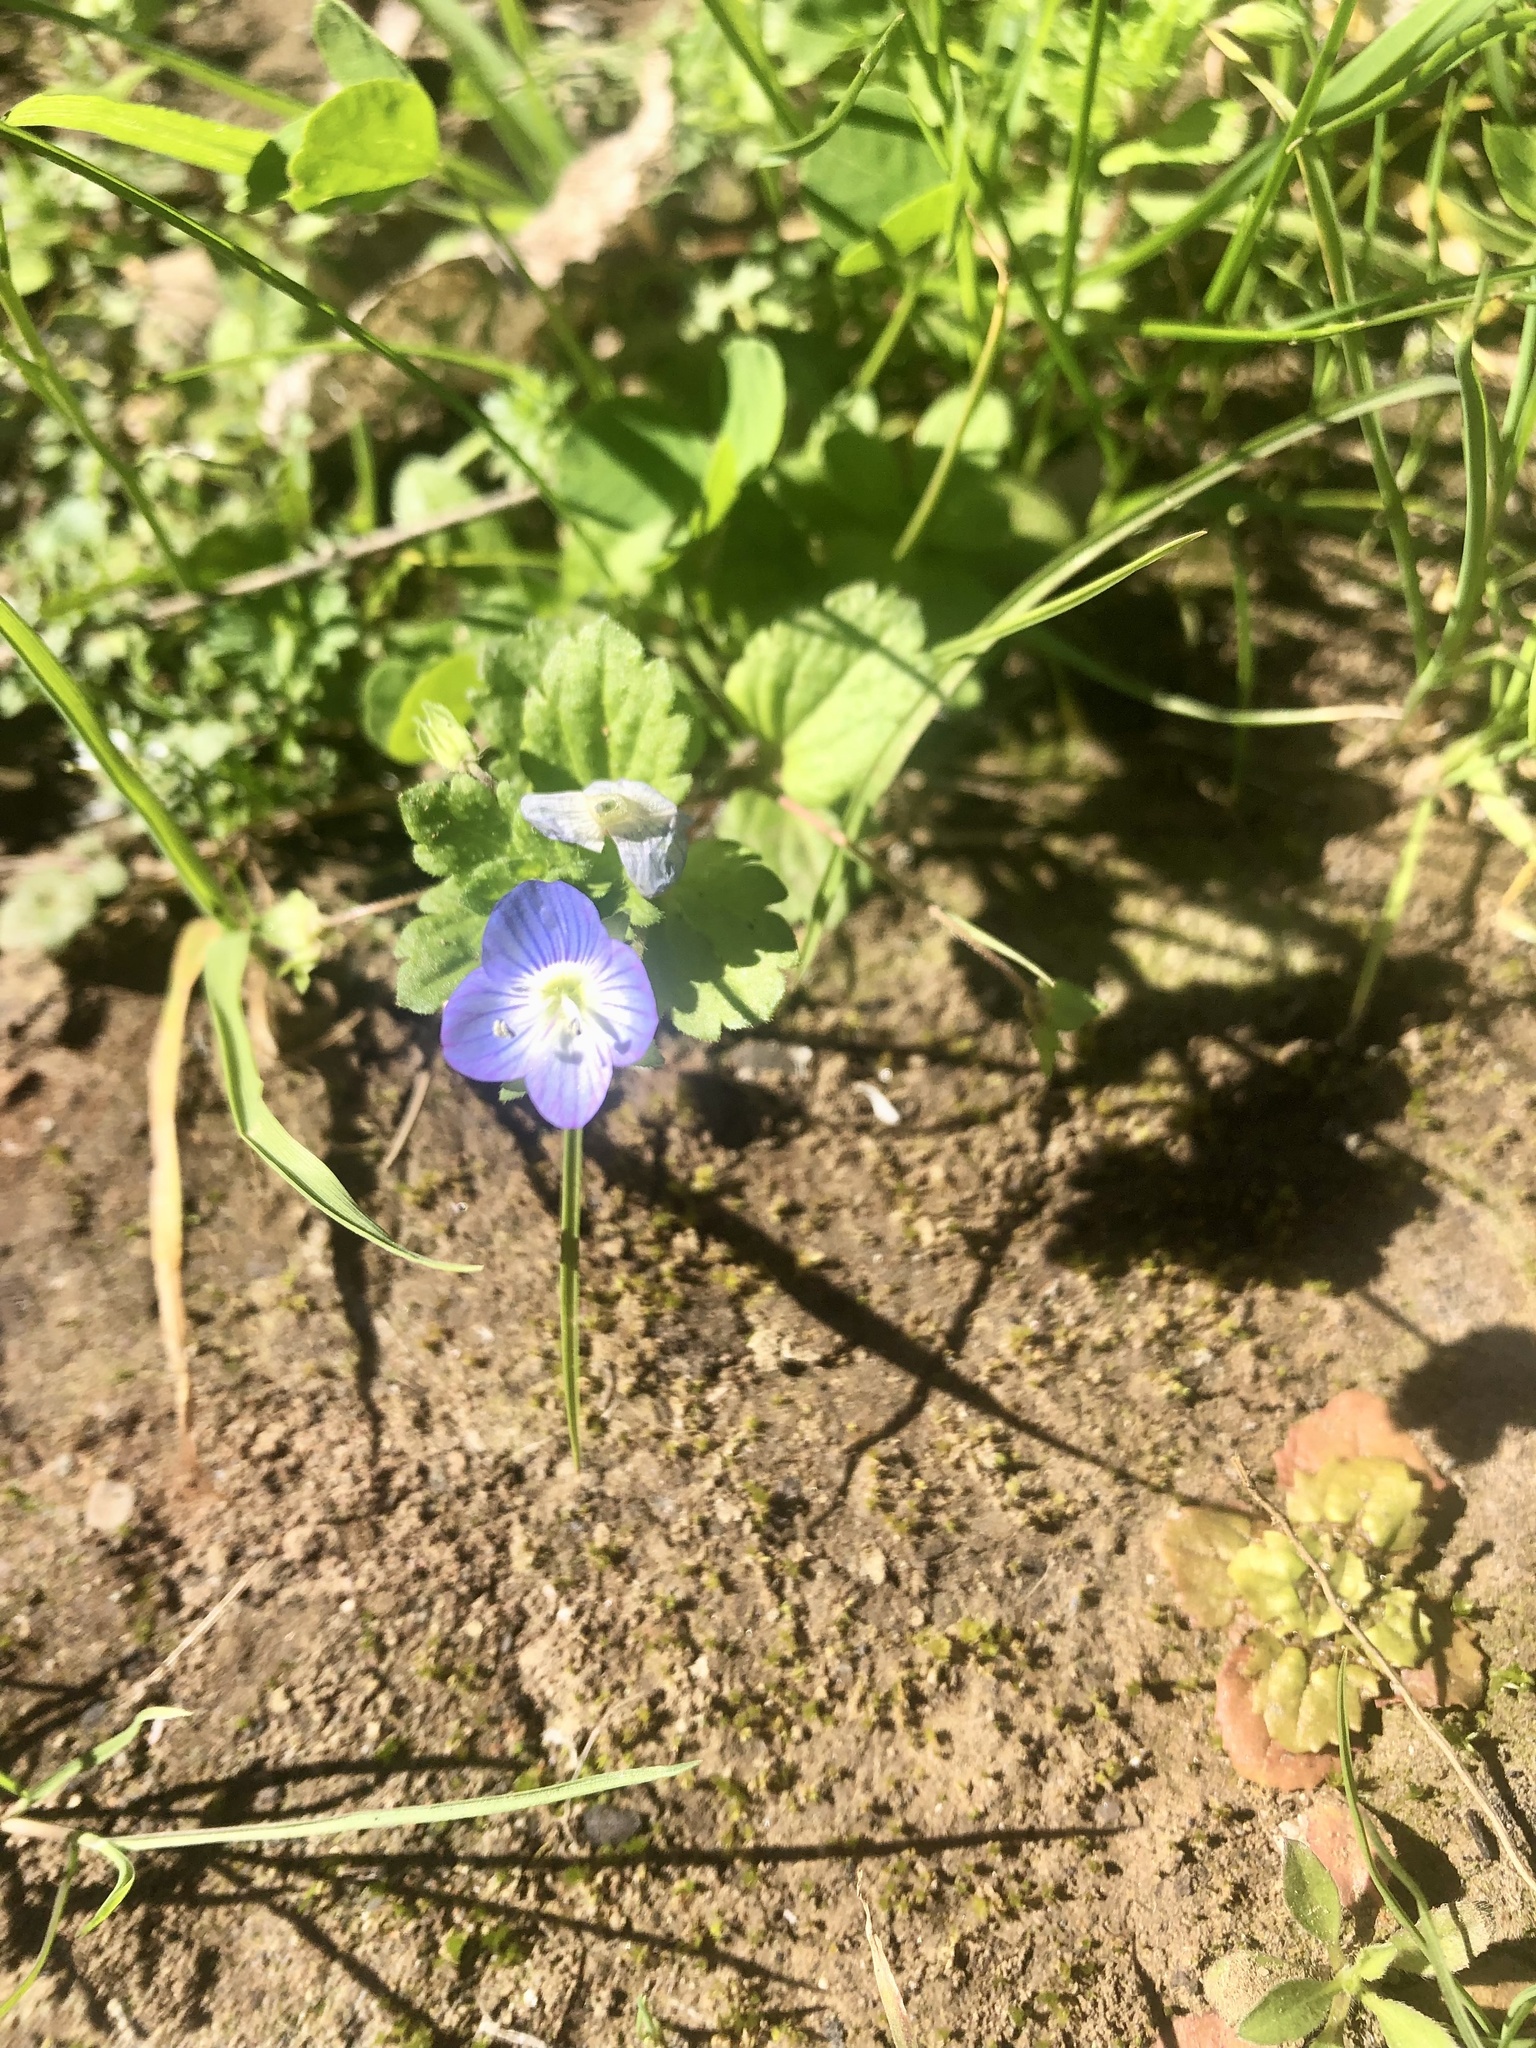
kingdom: Plantae
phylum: Tracheophyta
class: Magnoliopsida
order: Lamiales
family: Plantaginaceae
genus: Veronica
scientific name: Veronica persica
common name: Common field-speedwell
